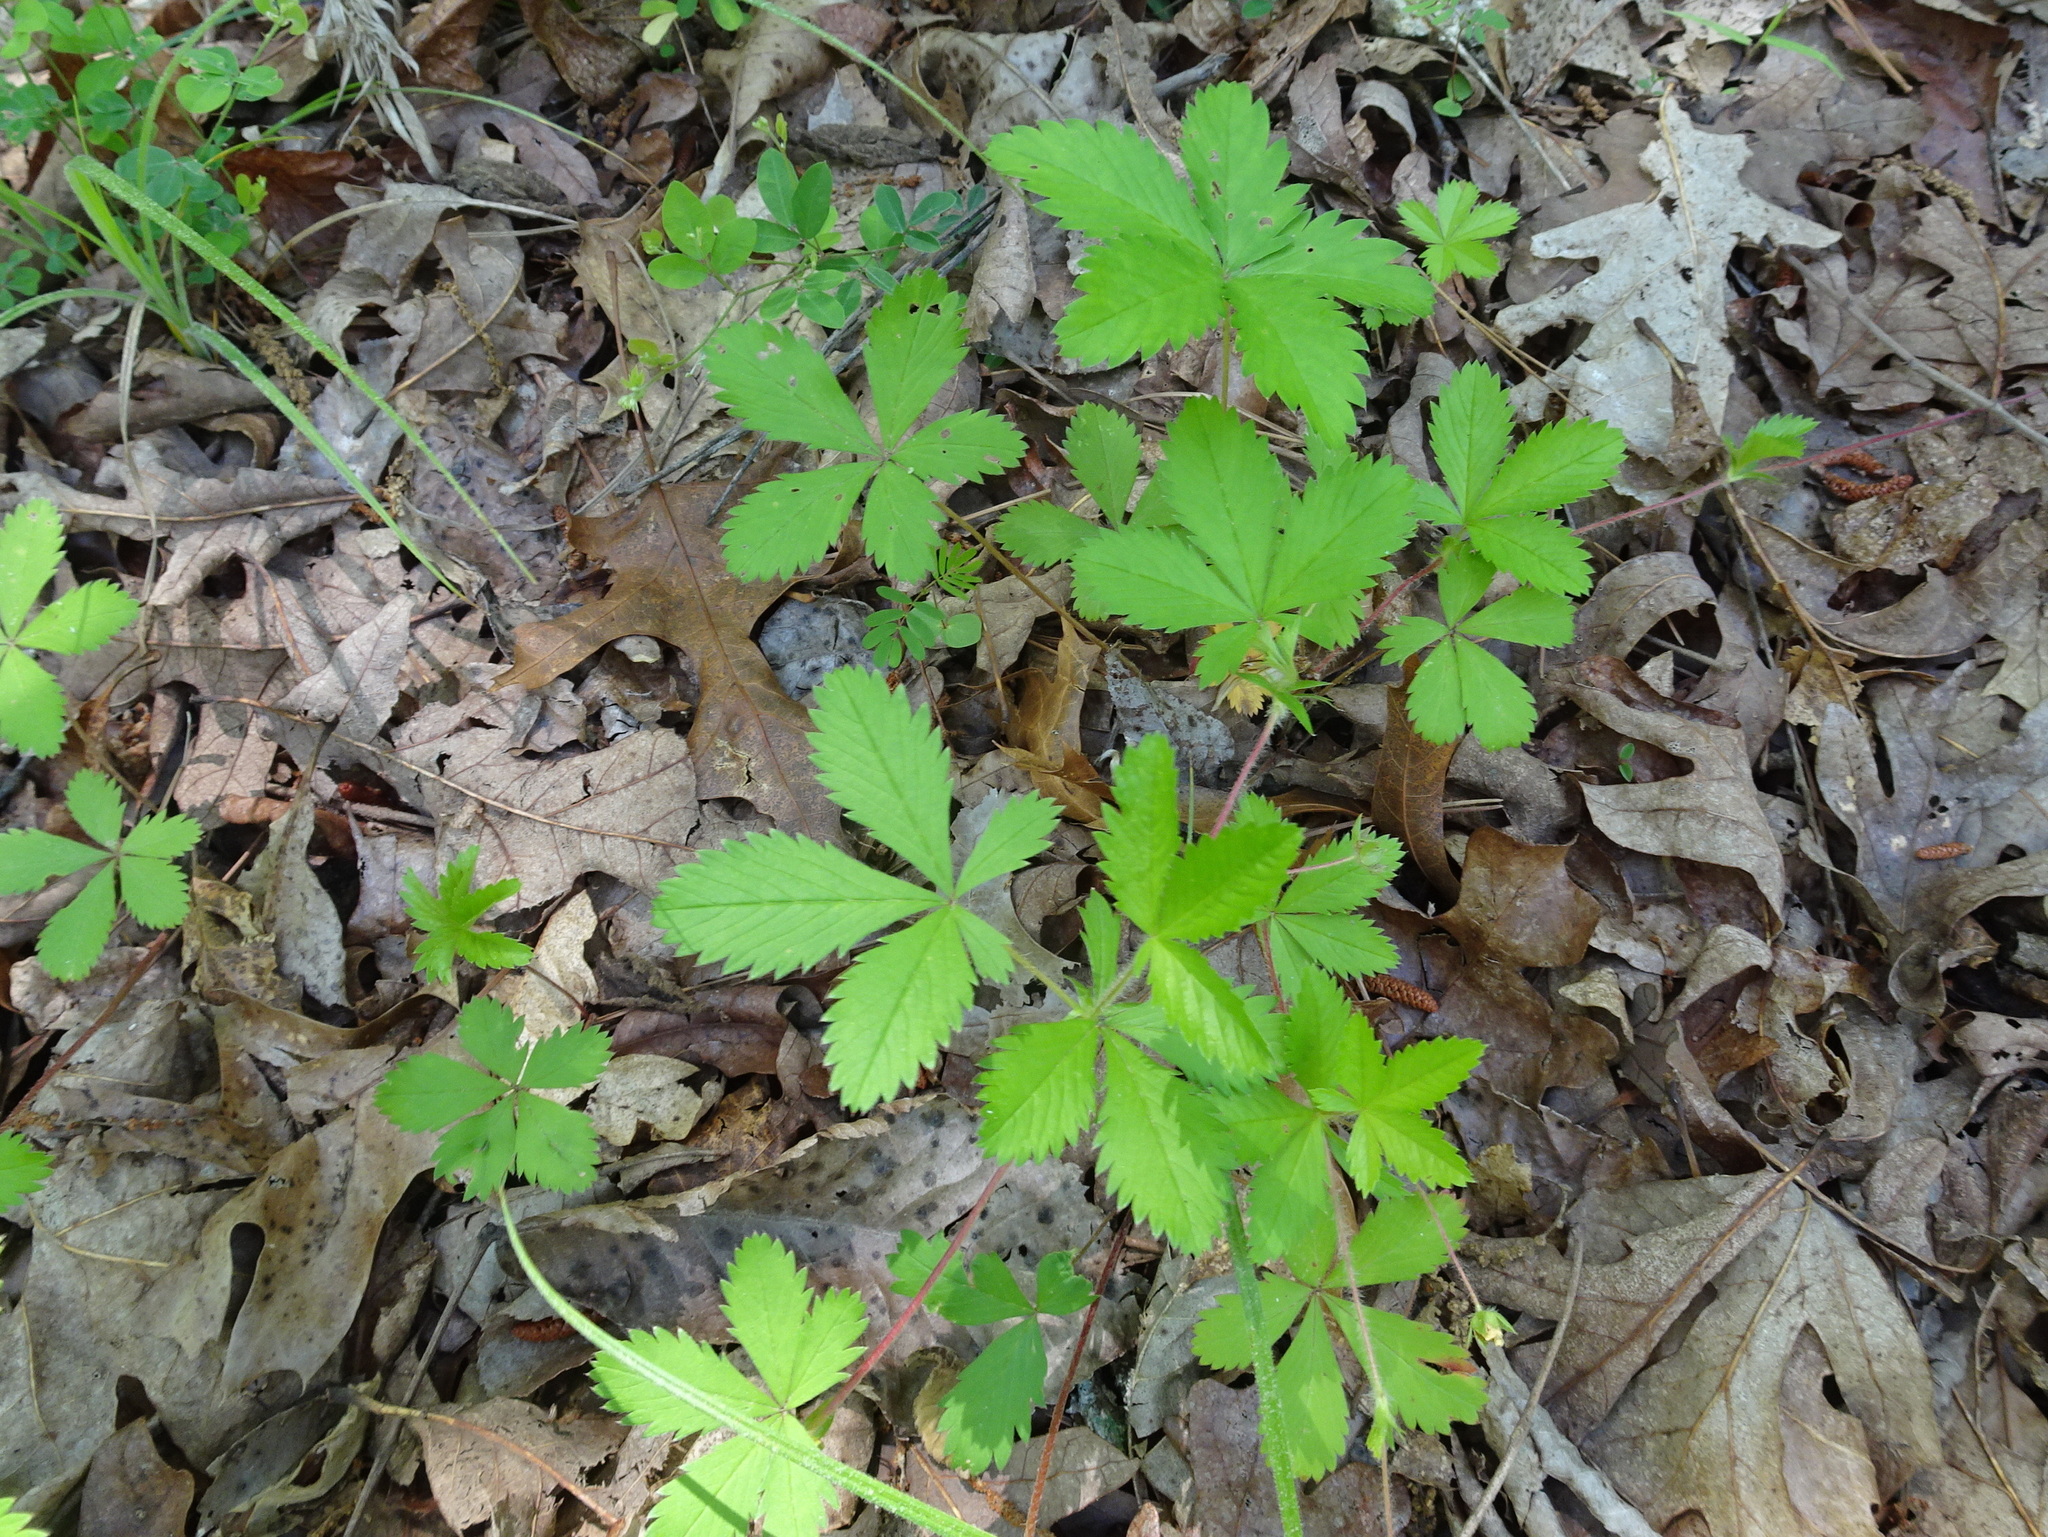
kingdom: Plantae
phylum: Tracheophyta
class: Magnoliopsida
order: Rosales
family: Rosaceae
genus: Potentilla
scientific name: Potentilla simplex
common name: Old field cinquefoil
